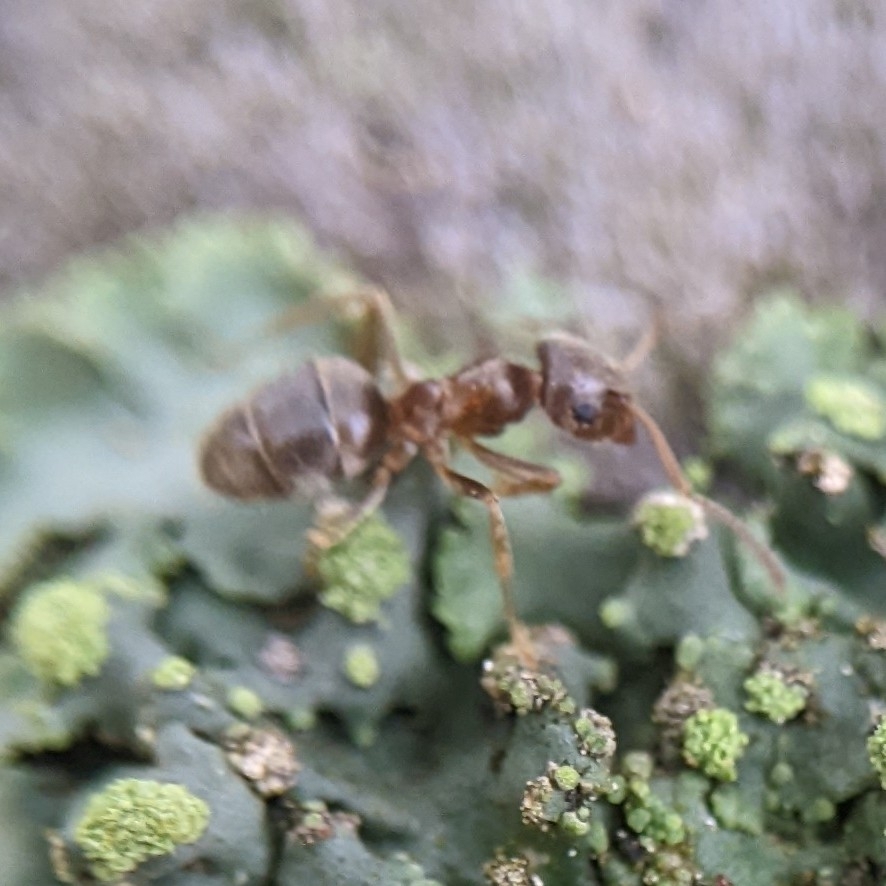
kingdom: Animalia
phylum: Arthropoda
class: Insecta
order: Hymenoptera
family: Formicidae
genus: Lasius
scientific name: Lasius
